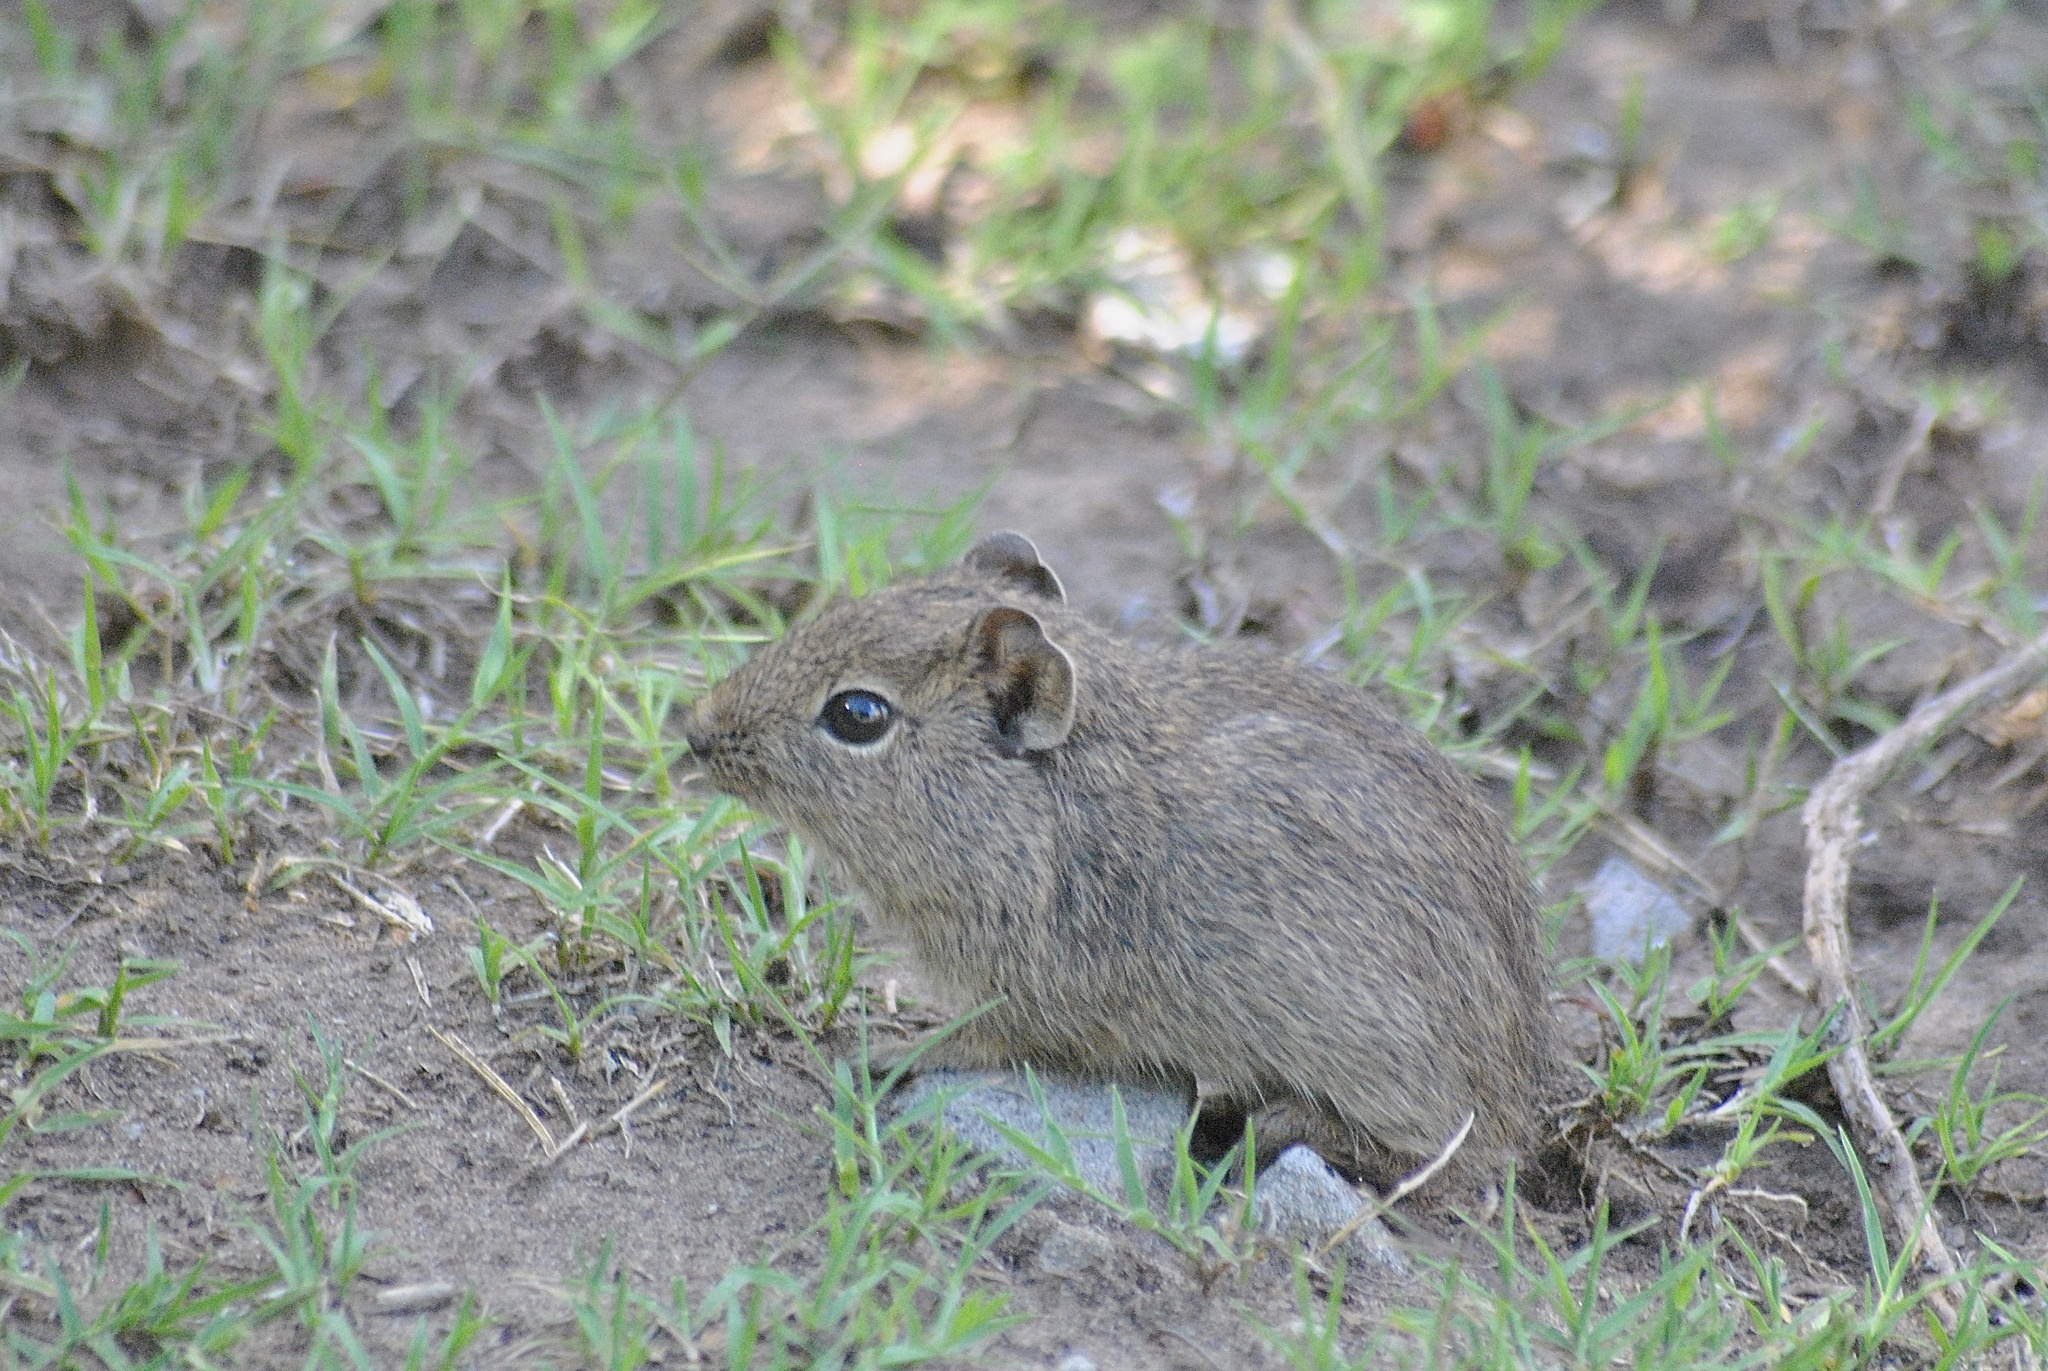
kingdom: Animalia
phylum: Chordata
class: Mammalia
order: Rodentia
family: Caviidae
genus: Microcavia
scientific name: Microcavia australis
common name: Southern mountain cavy
